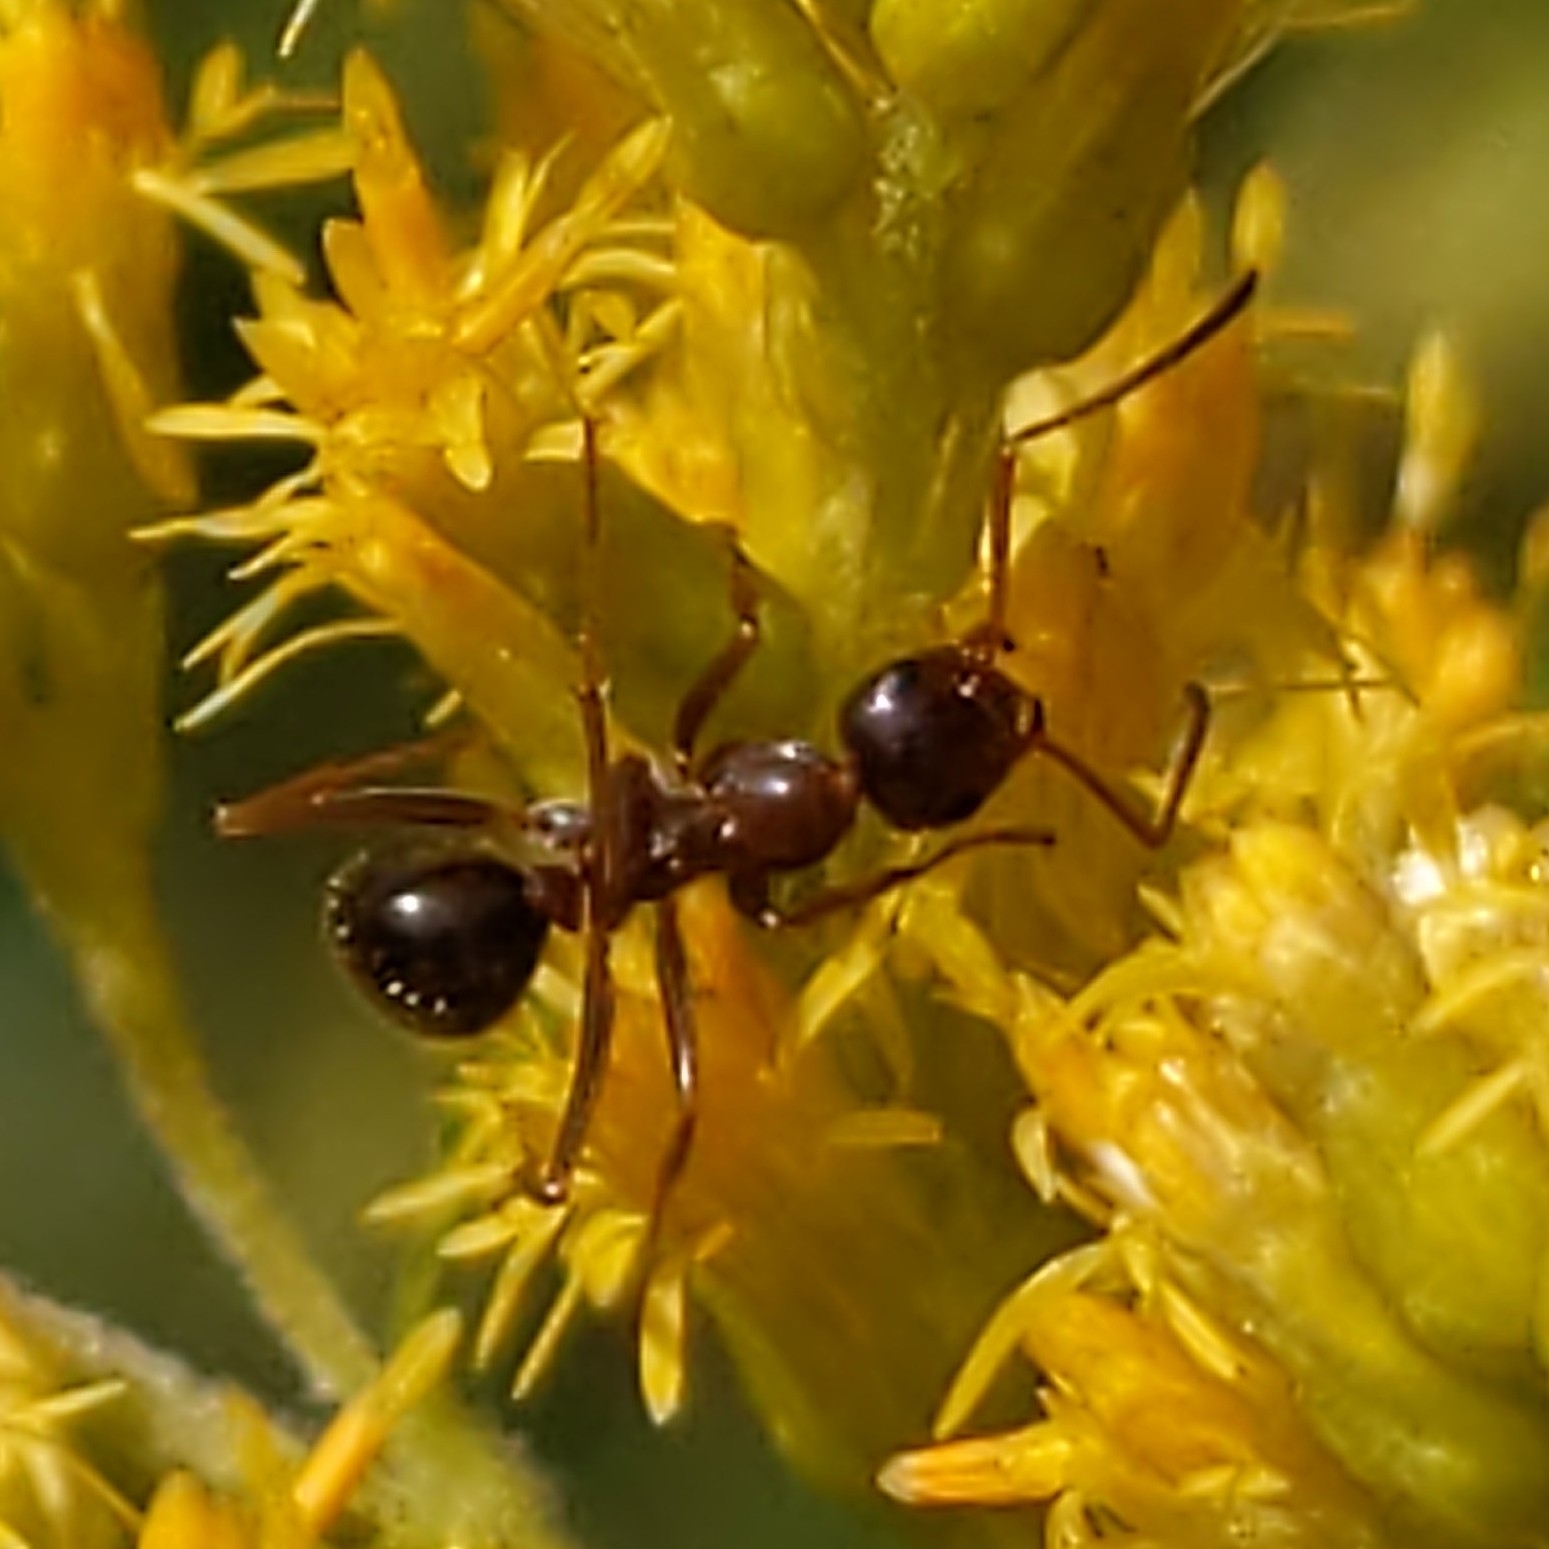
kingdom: Animalia
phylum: Arthropoda
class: Insecta
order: Hymenoptera
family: Formicidae
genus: Formica
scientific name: Formica
